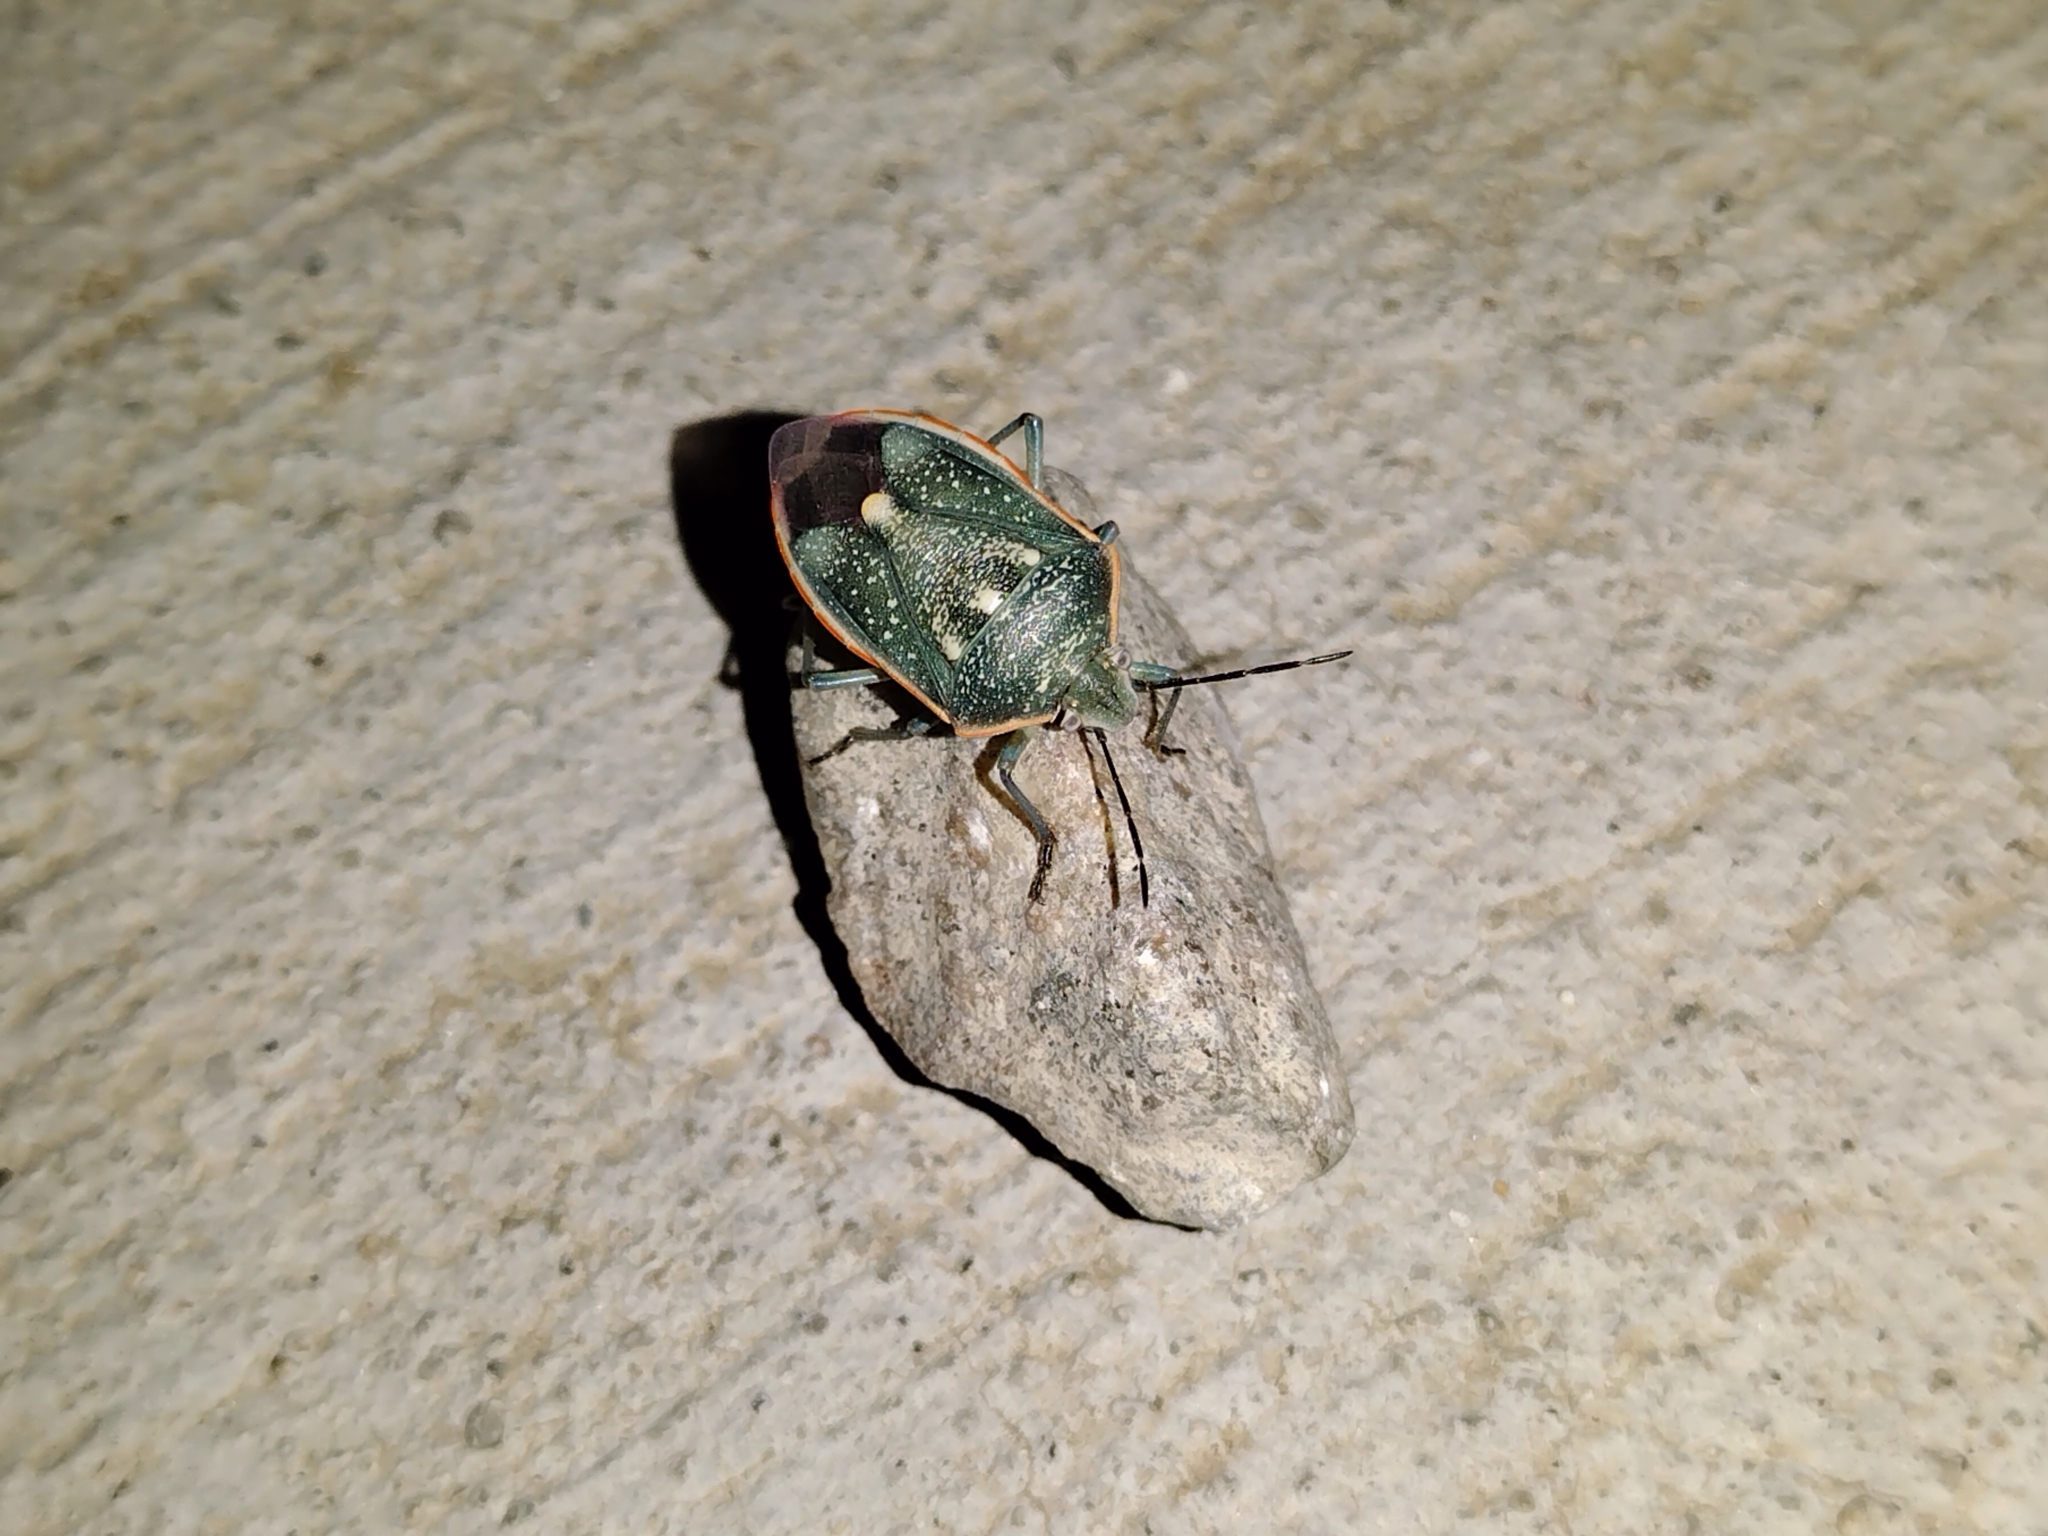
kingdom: Animalia
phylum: Arthropoda
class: Insecta
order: Hemiptera
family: Pentatomidae
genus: Chlorochroa
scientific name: Chlorochroa sayi
